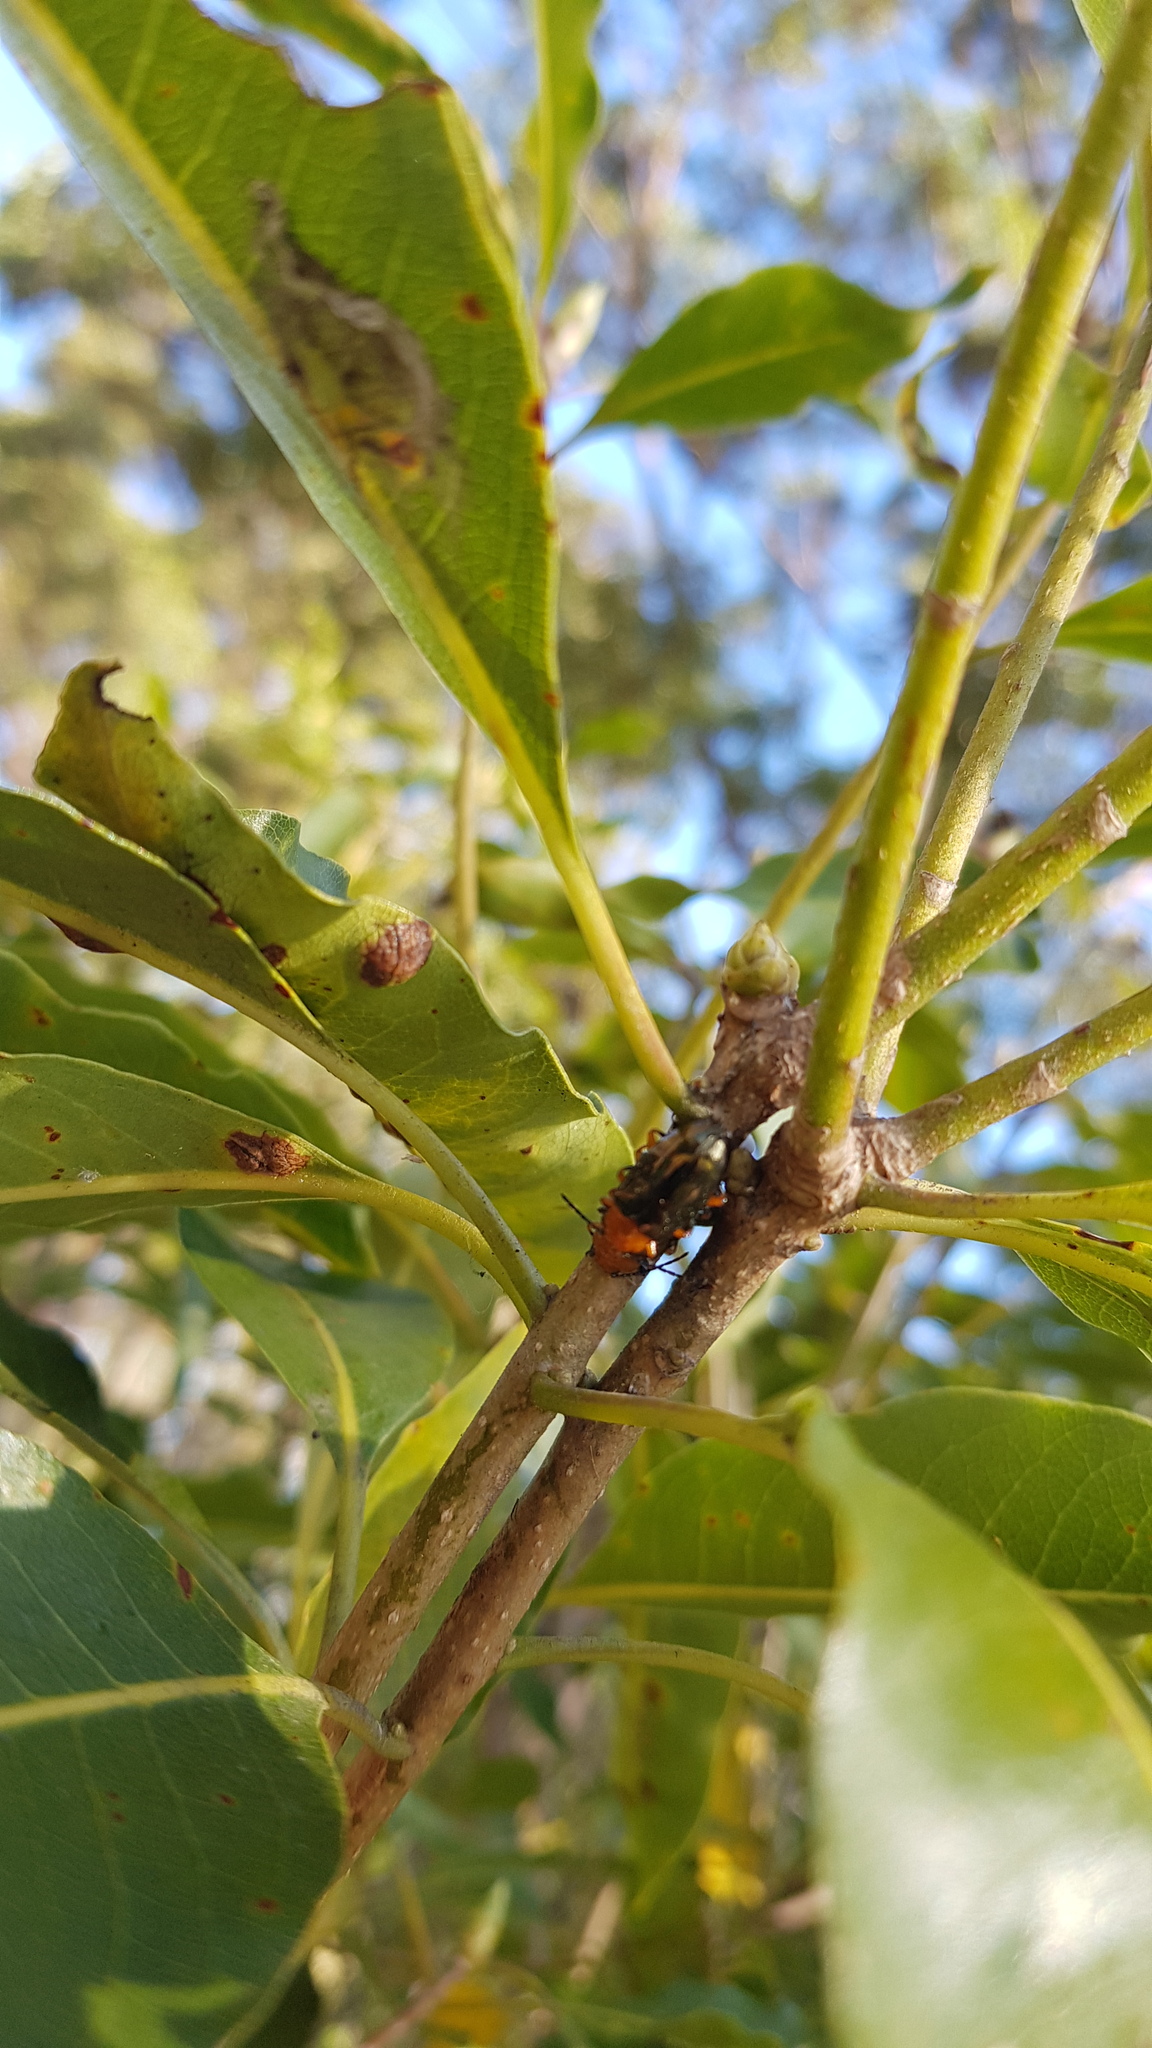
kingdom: Animalia
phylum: Arthropoda
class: Insecta
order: Coleoptera
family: Chrysomelidae
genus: Lamprolina
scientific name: Lamprolina
